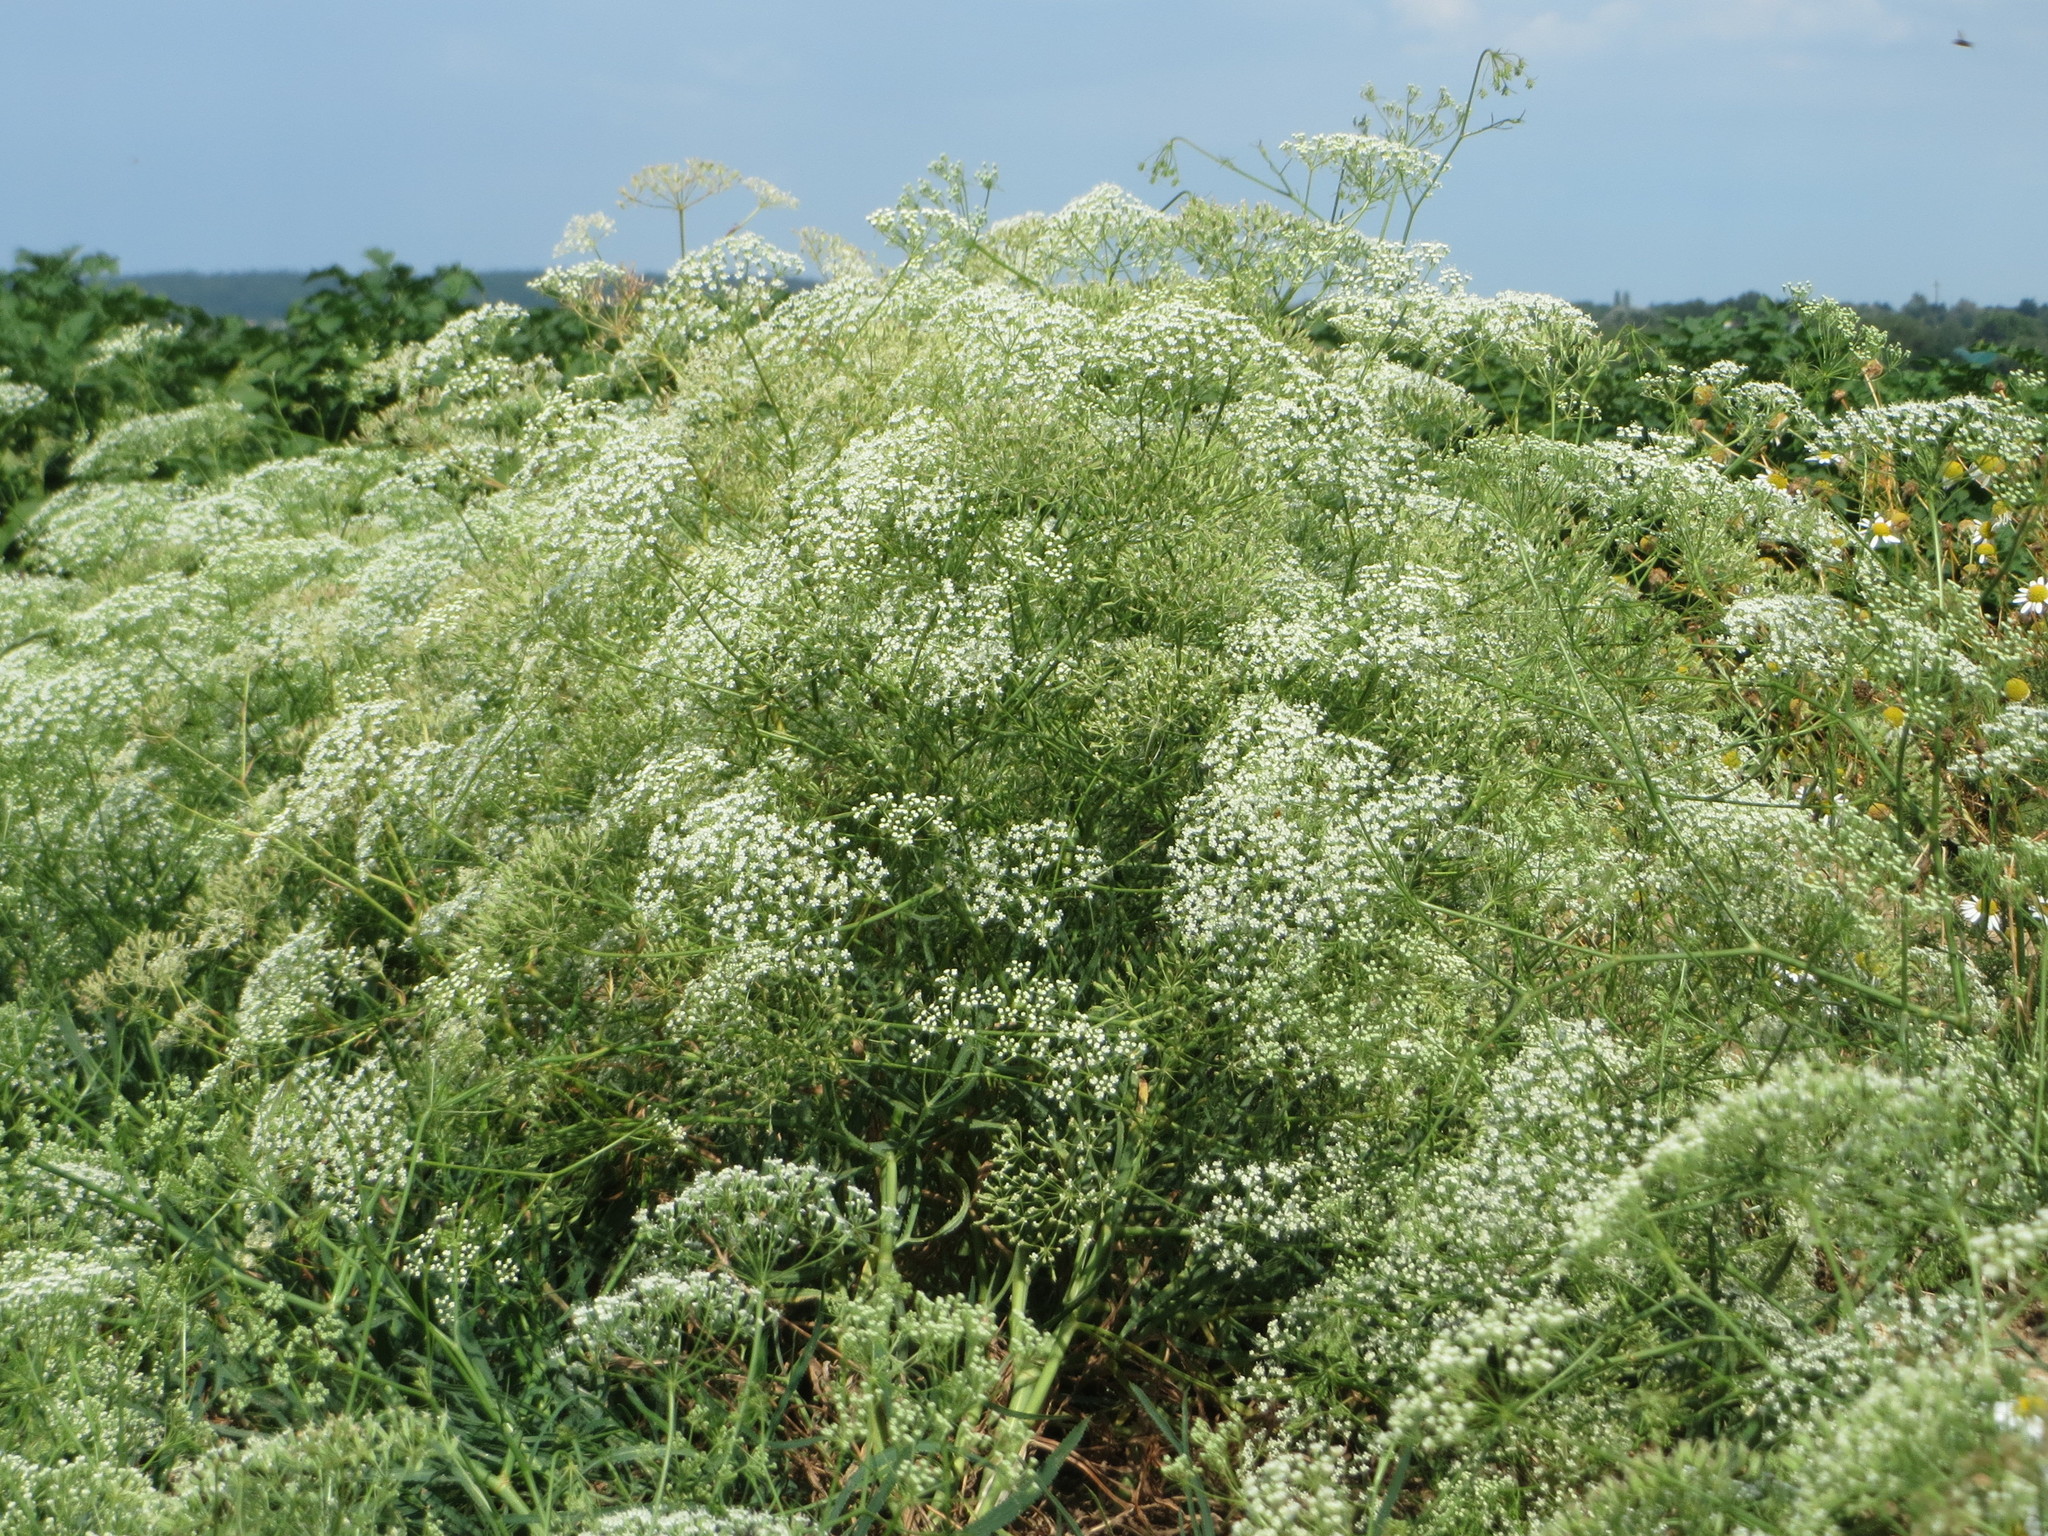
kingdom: Plantae
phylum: Tracheophyta
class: Magnoliopsida
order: Apiales
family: Apiaceae
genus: Falcaria
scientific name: Falcaria vulgaris
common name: Longleaf
